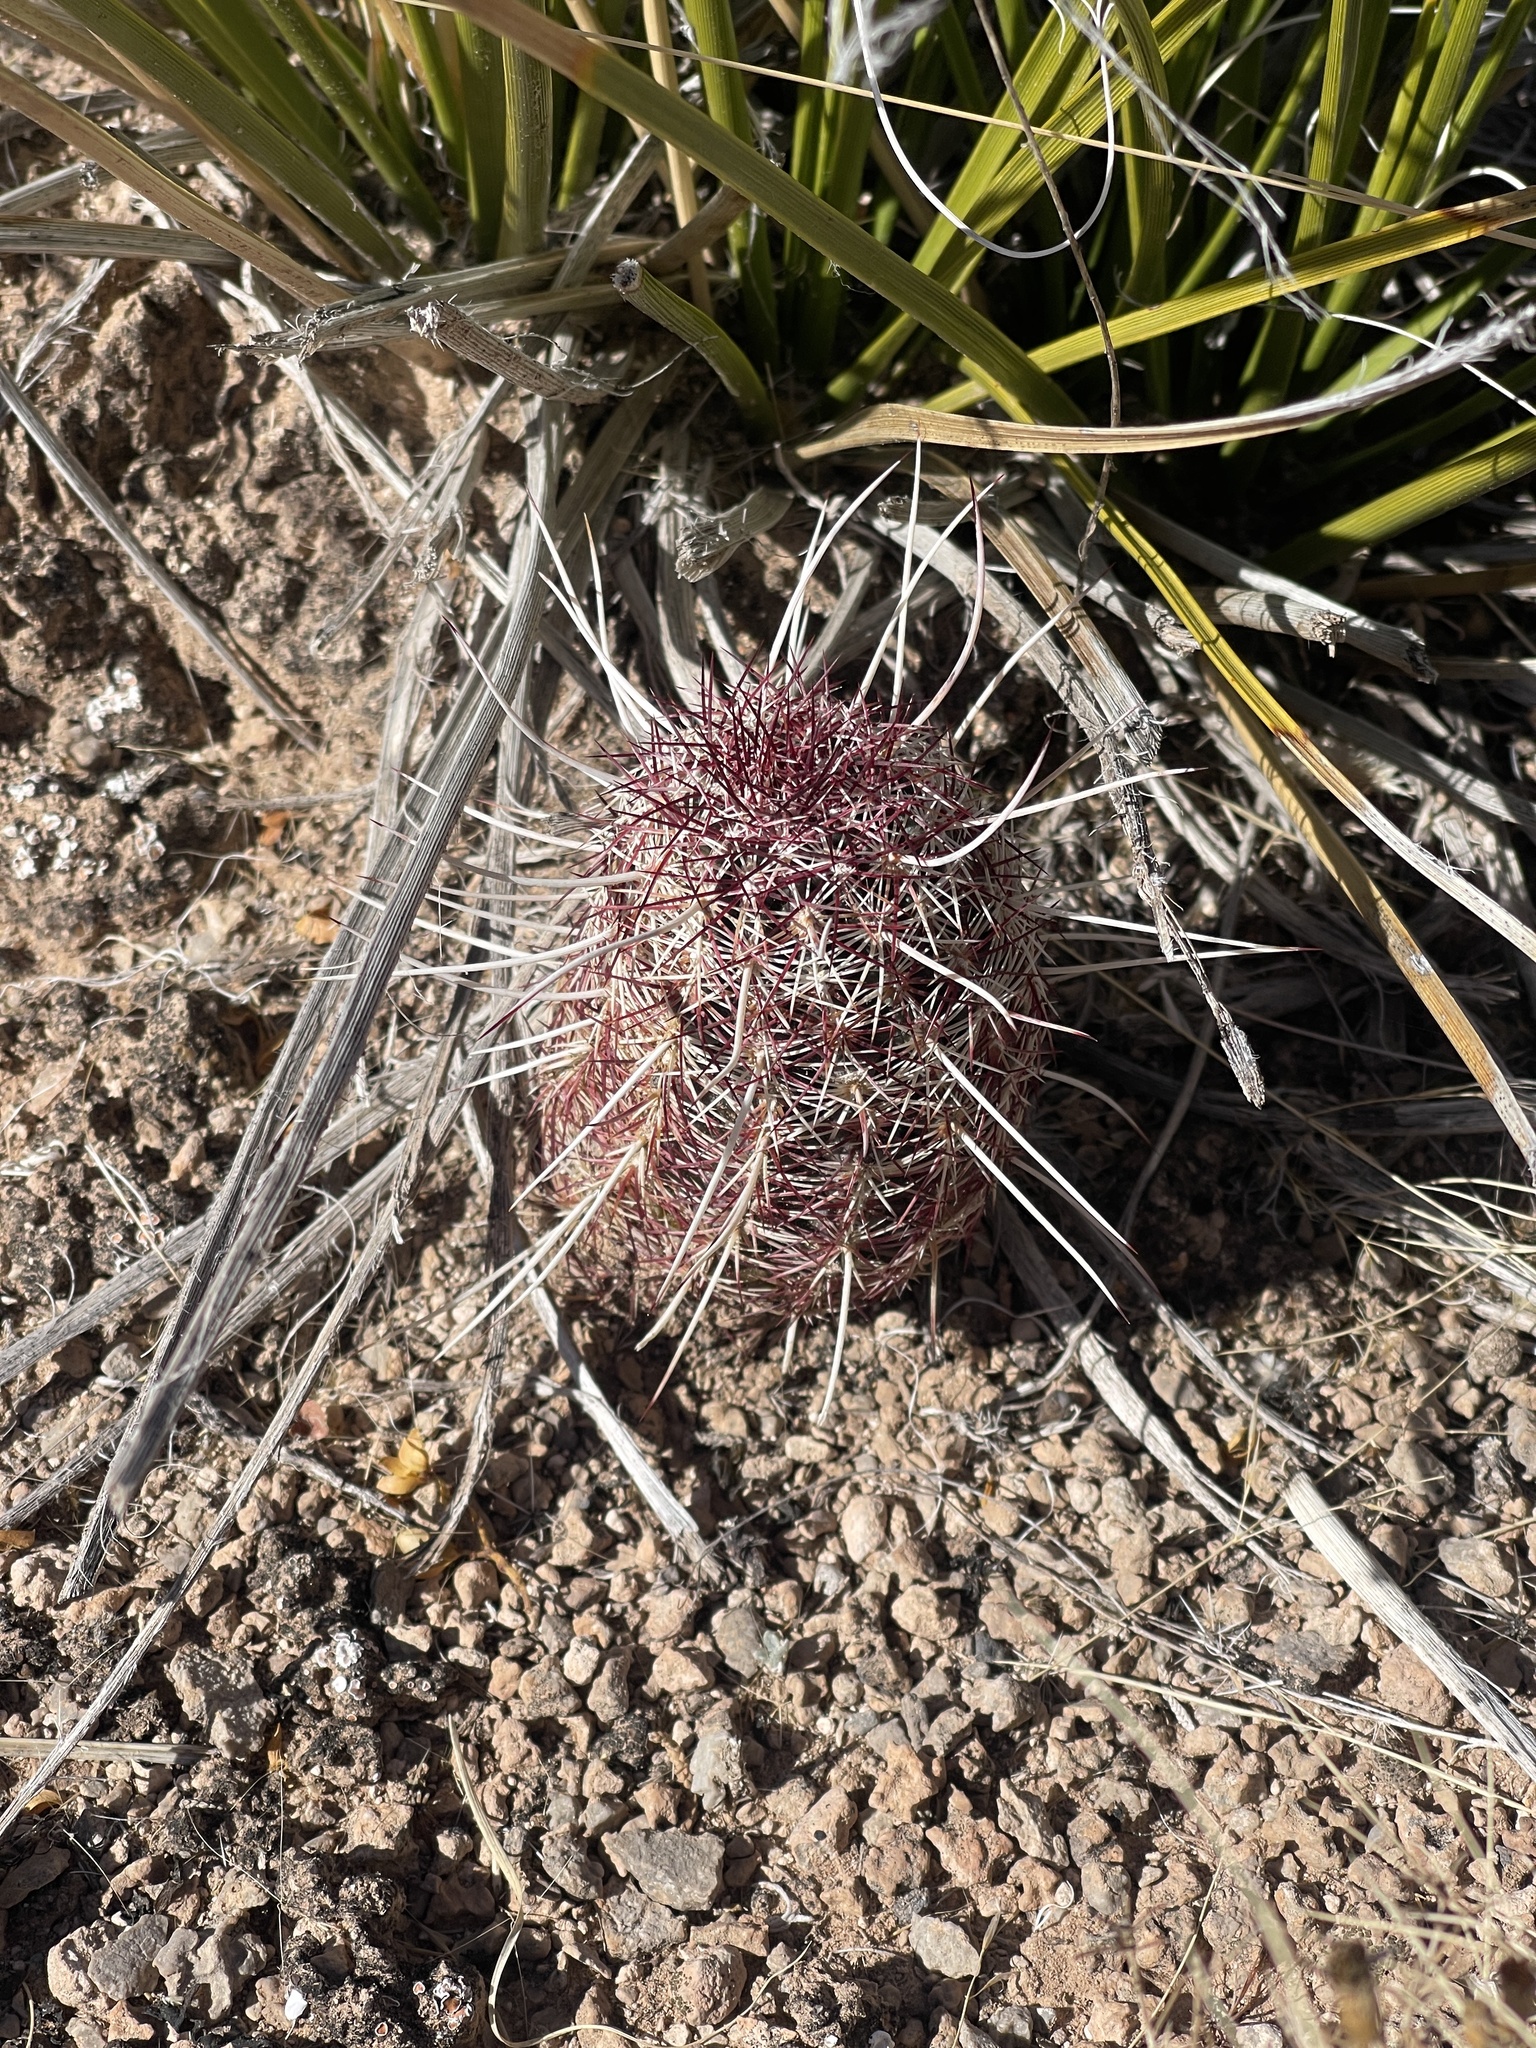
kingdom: Plantae
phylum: Tracheophyta
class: Magnoliopsida
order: Caryophyllales
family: Cactaceae
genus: Echinocereus
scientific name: Echinocereus viridiflorus
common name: Nylon hedgehog cactus
